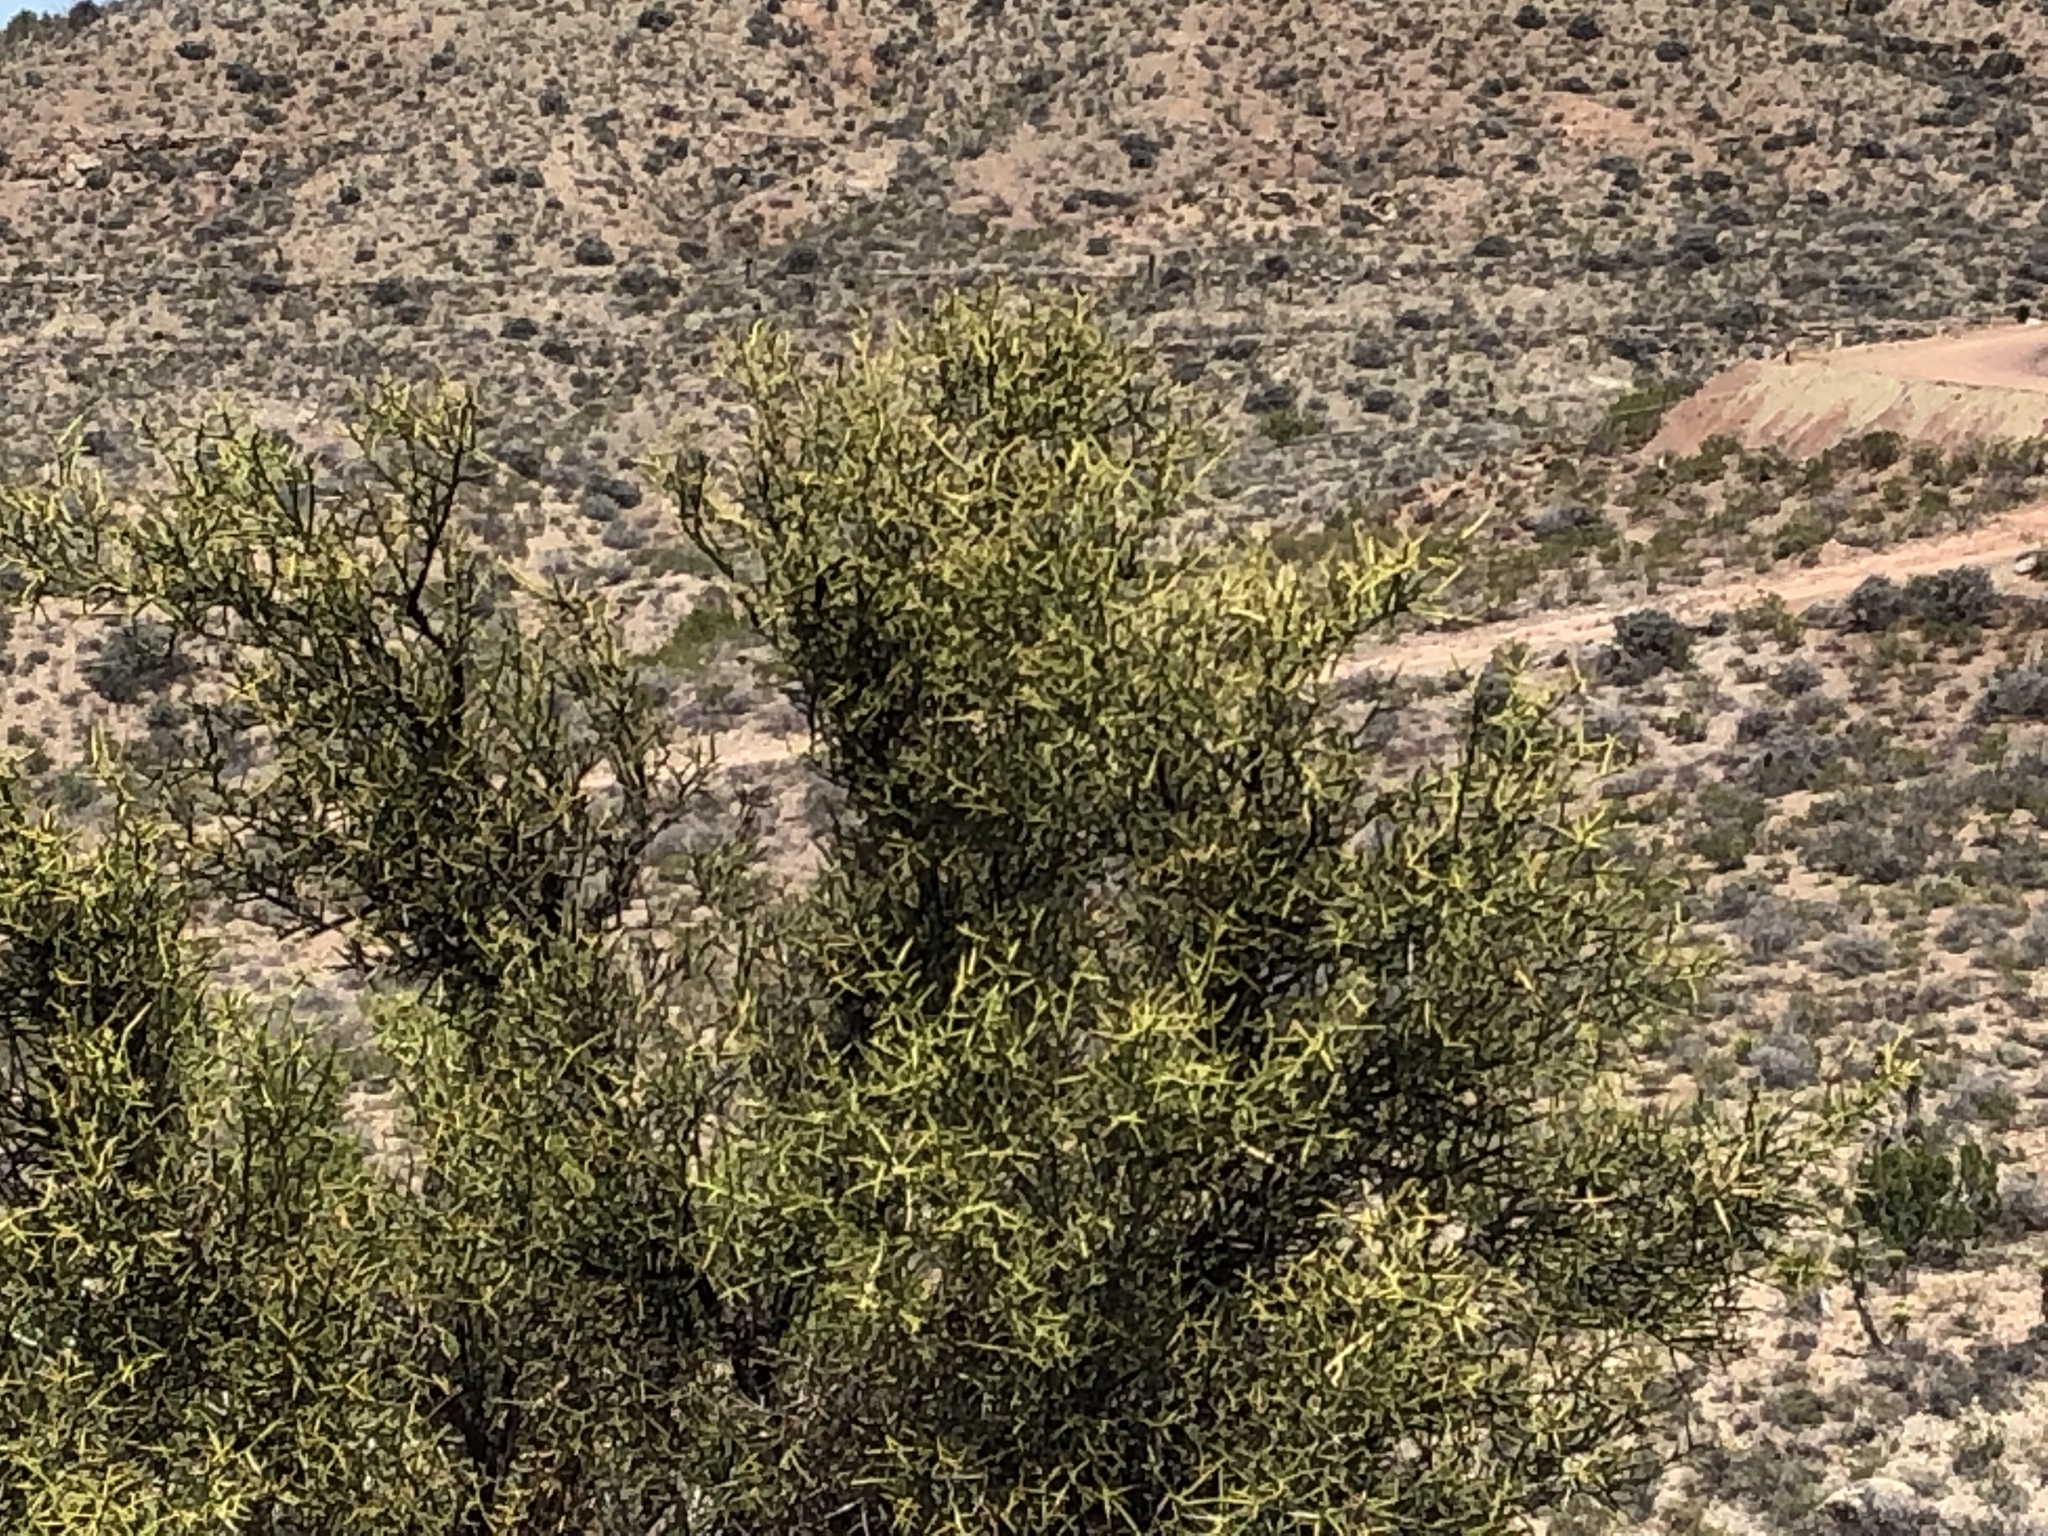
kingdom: Plantae
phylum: Tracheophyta
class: Magnoliopsida
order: Brassicales
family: Koeberliniaceae
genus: Koeberlinia
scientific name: Koeberlinia spinosa
